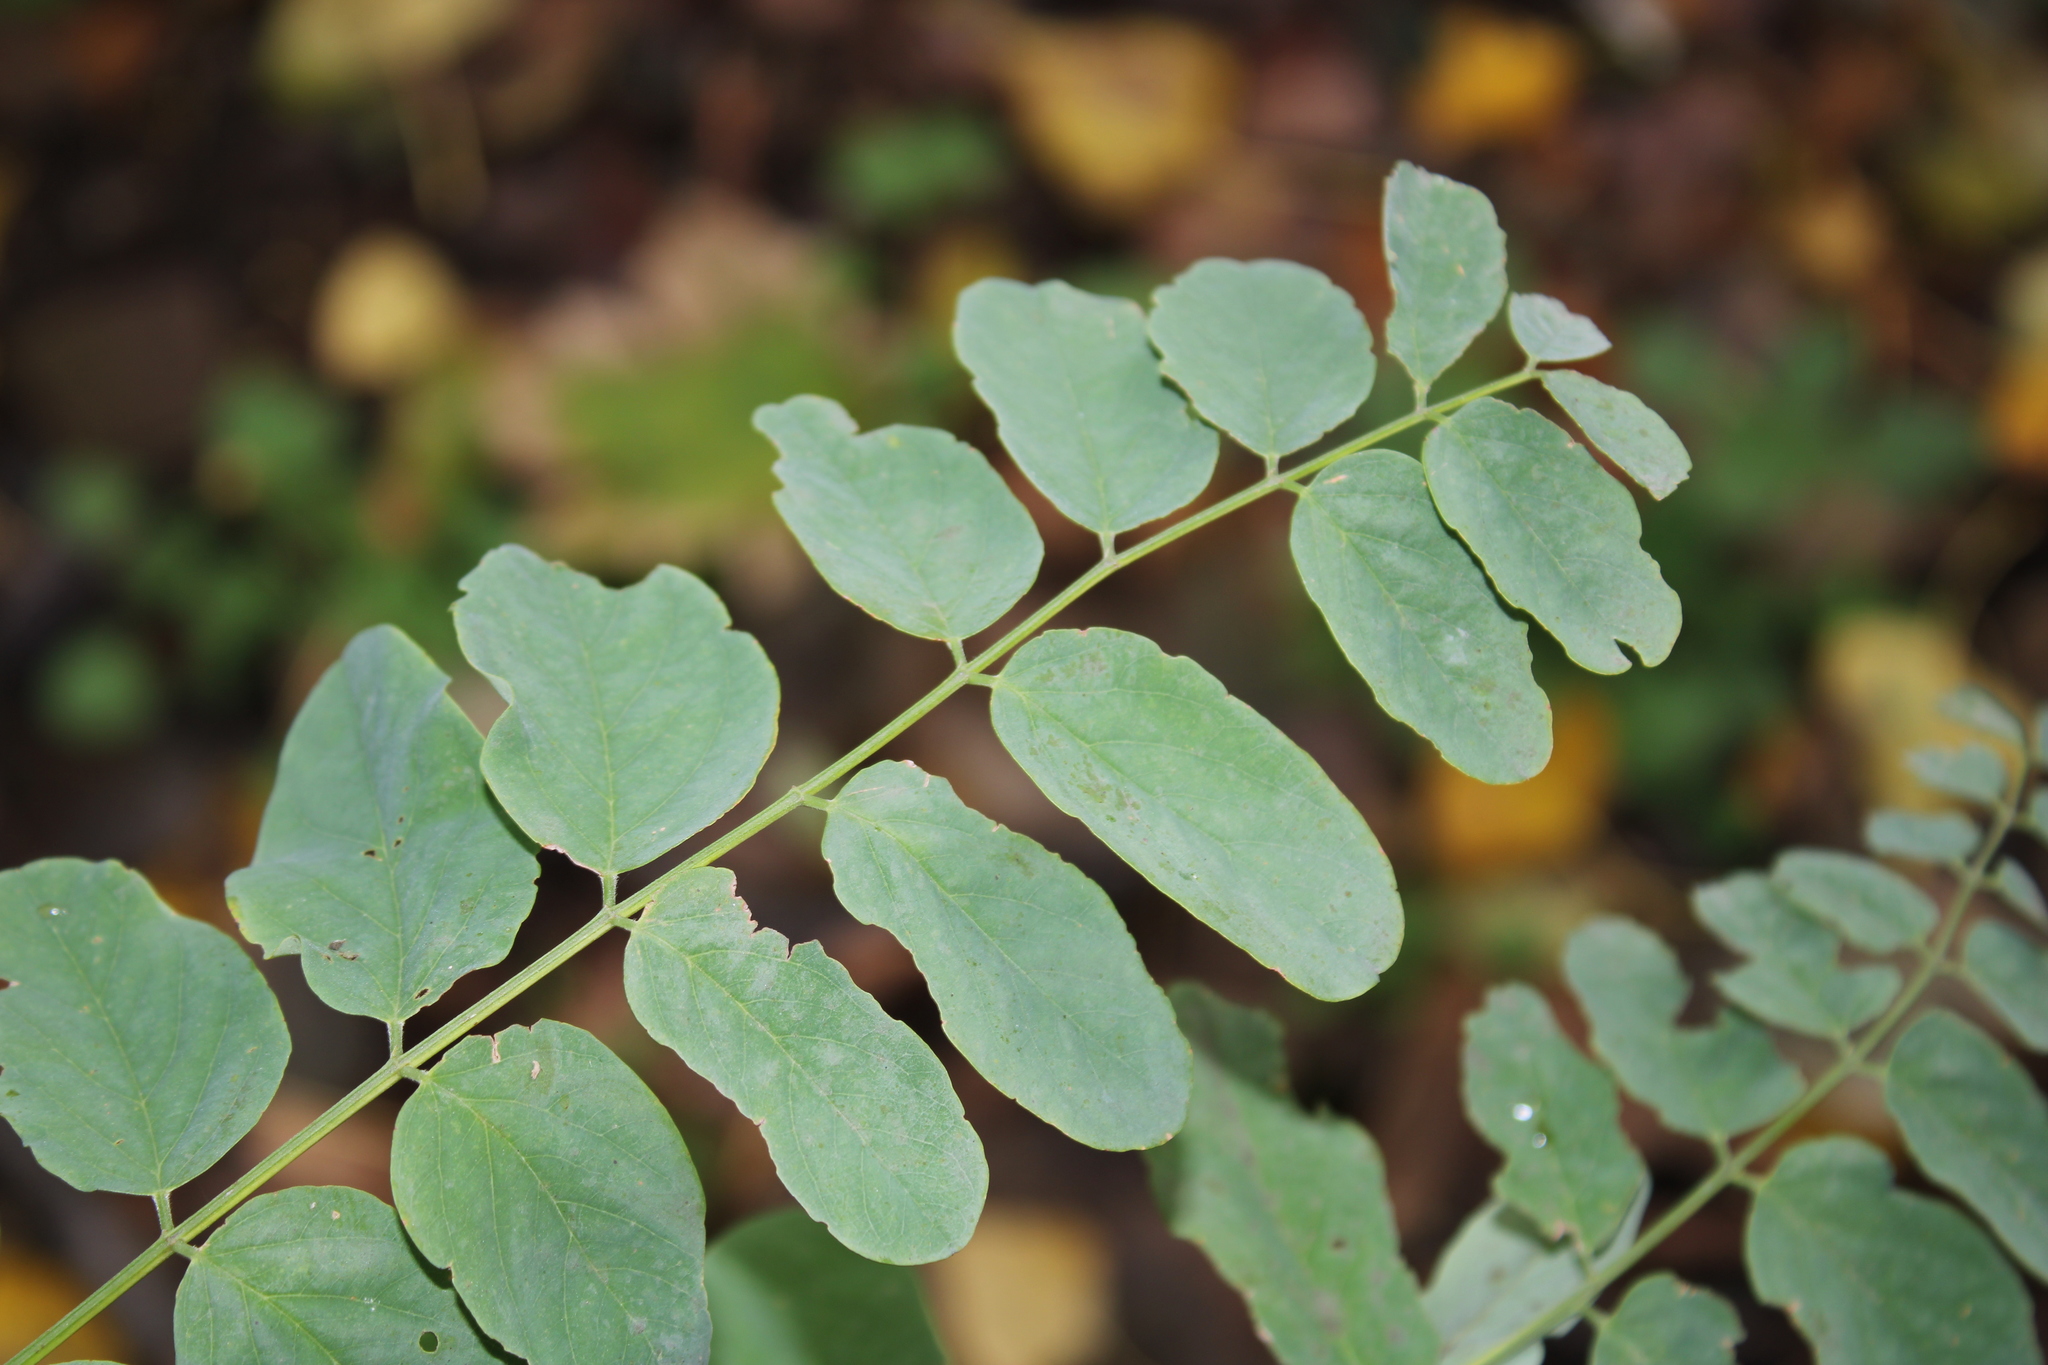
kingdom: Plantae
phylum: Tracheophyta
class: Magnoliopsida
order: Fabales
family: Fabaceae
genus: Robinia
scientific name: Robinia pseudoacacia
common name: Black locust
